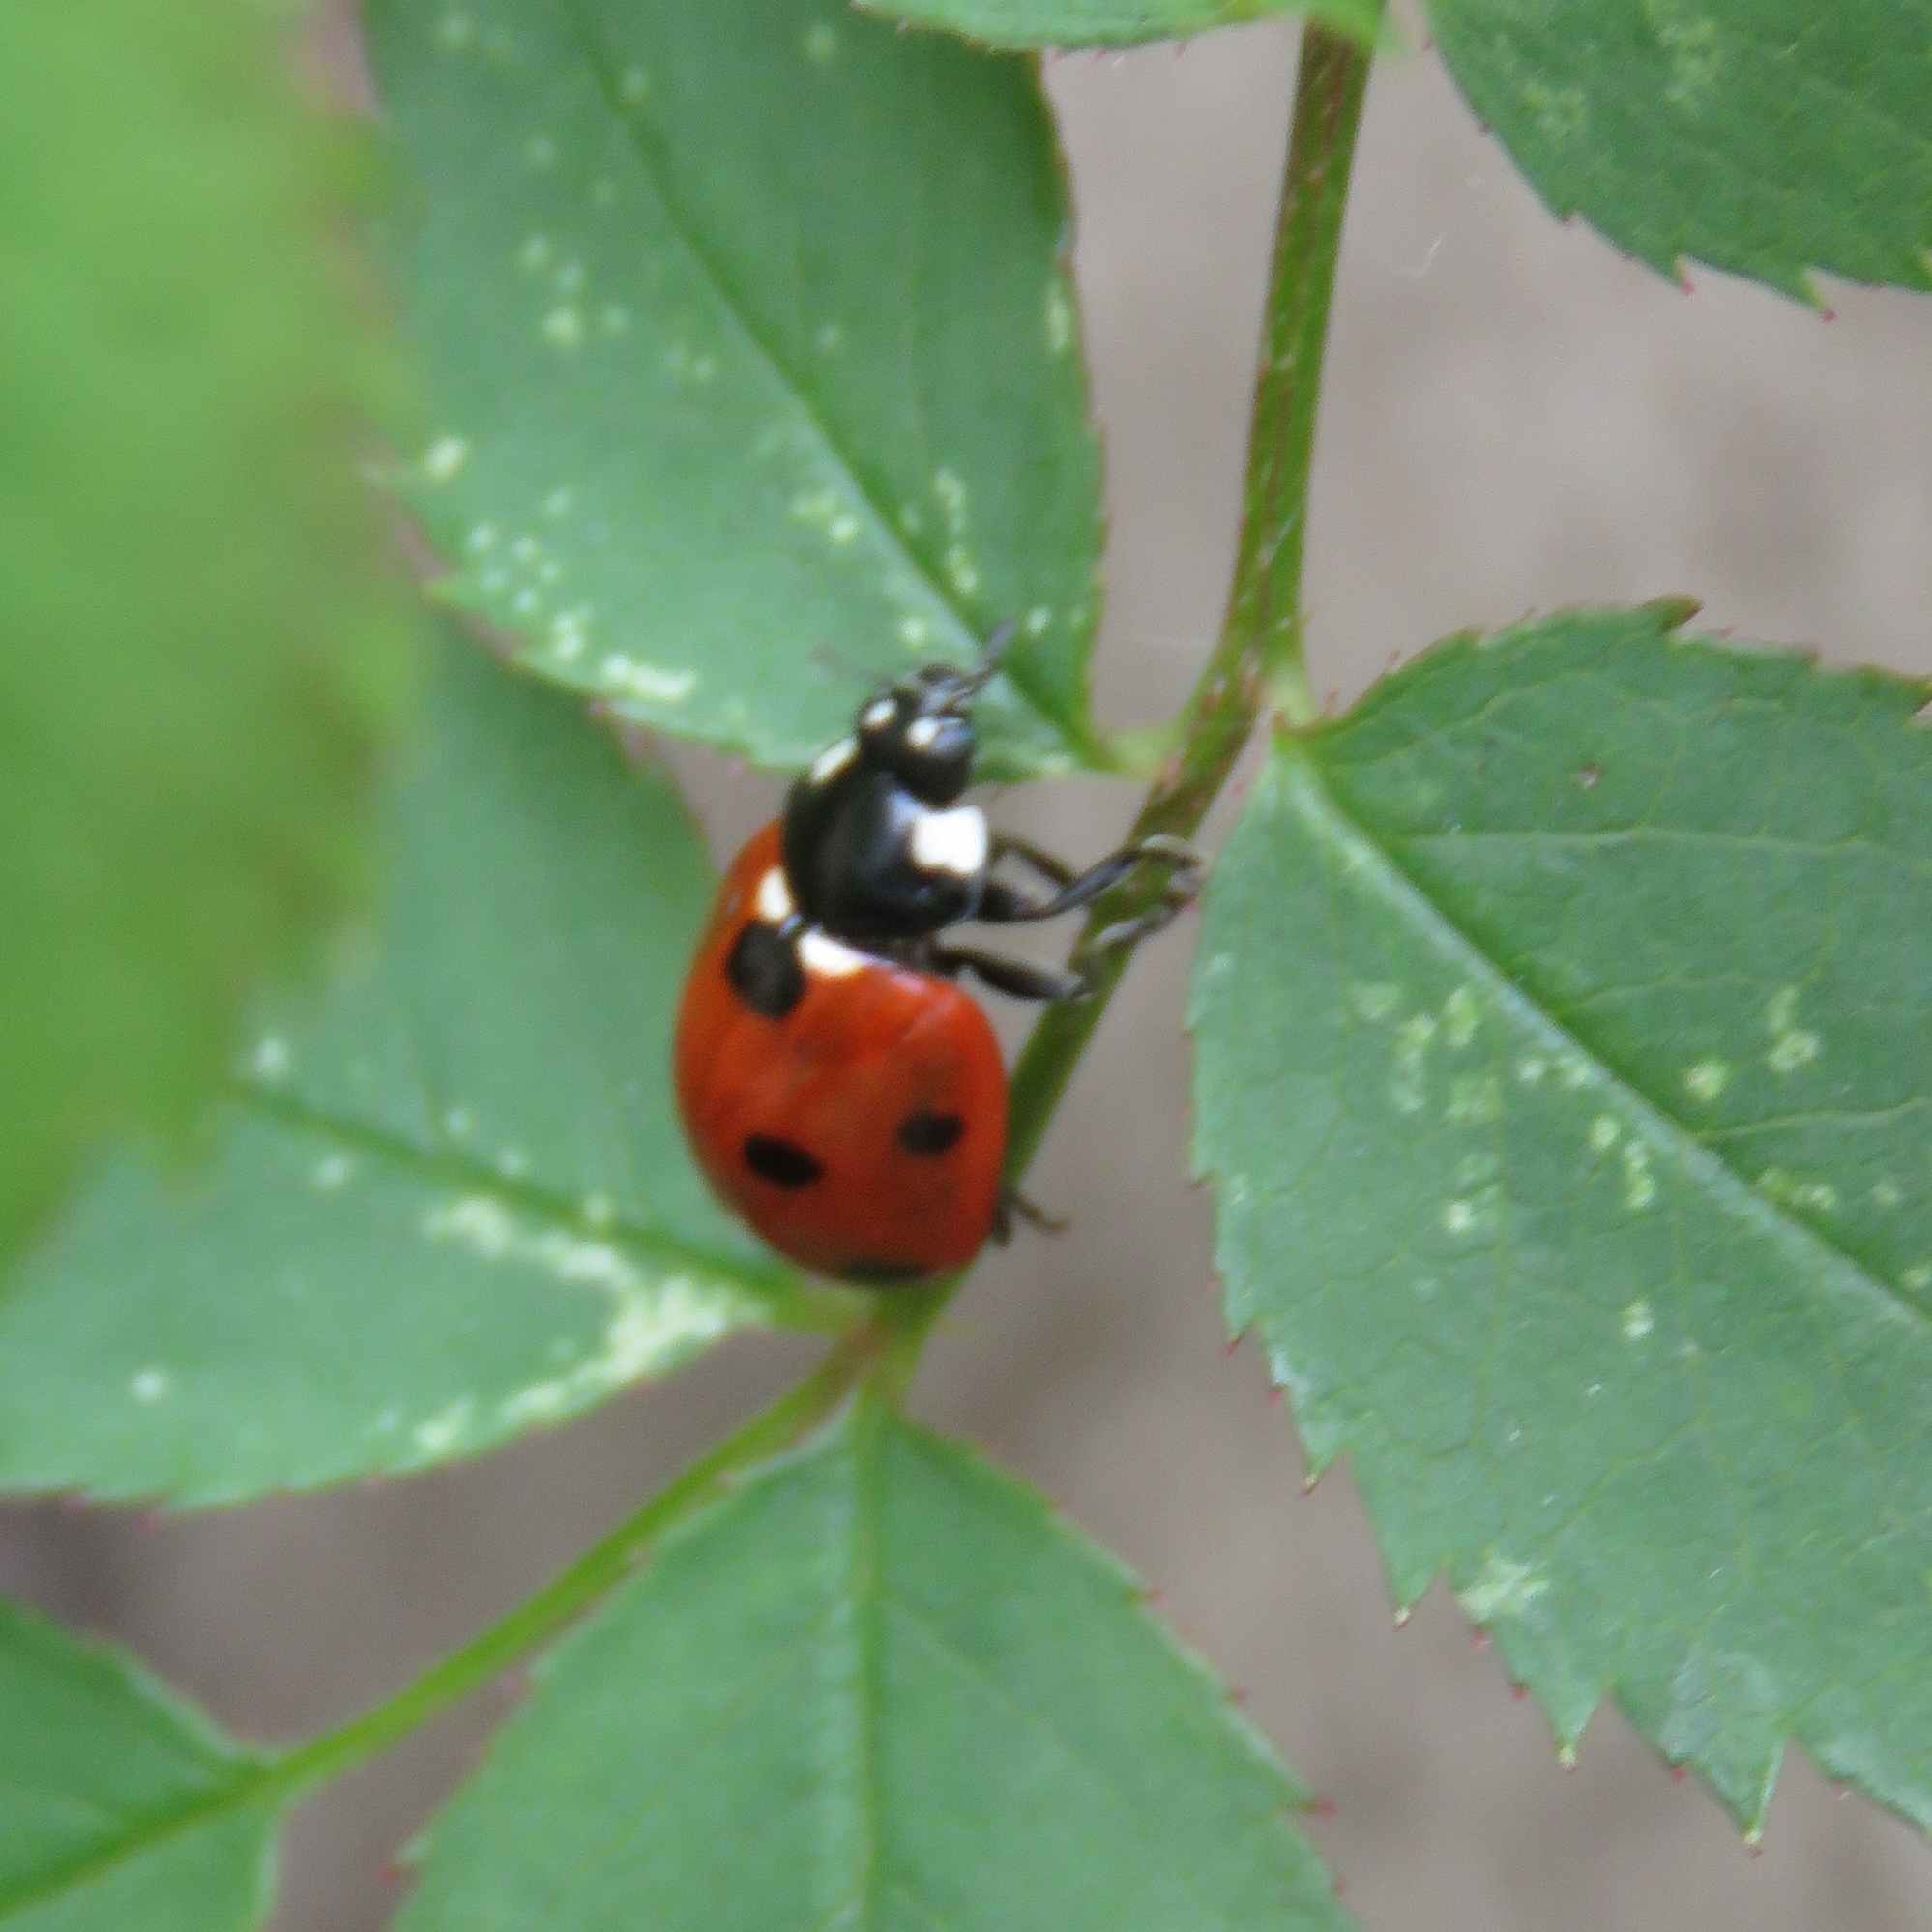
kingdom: Animalia
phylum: Arthropoda
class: Insecta
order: Coleoptera
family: Coccinellidae
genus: Coccinella
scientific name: Coccinella septempunctata
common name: Sevenspotted lady beetle
